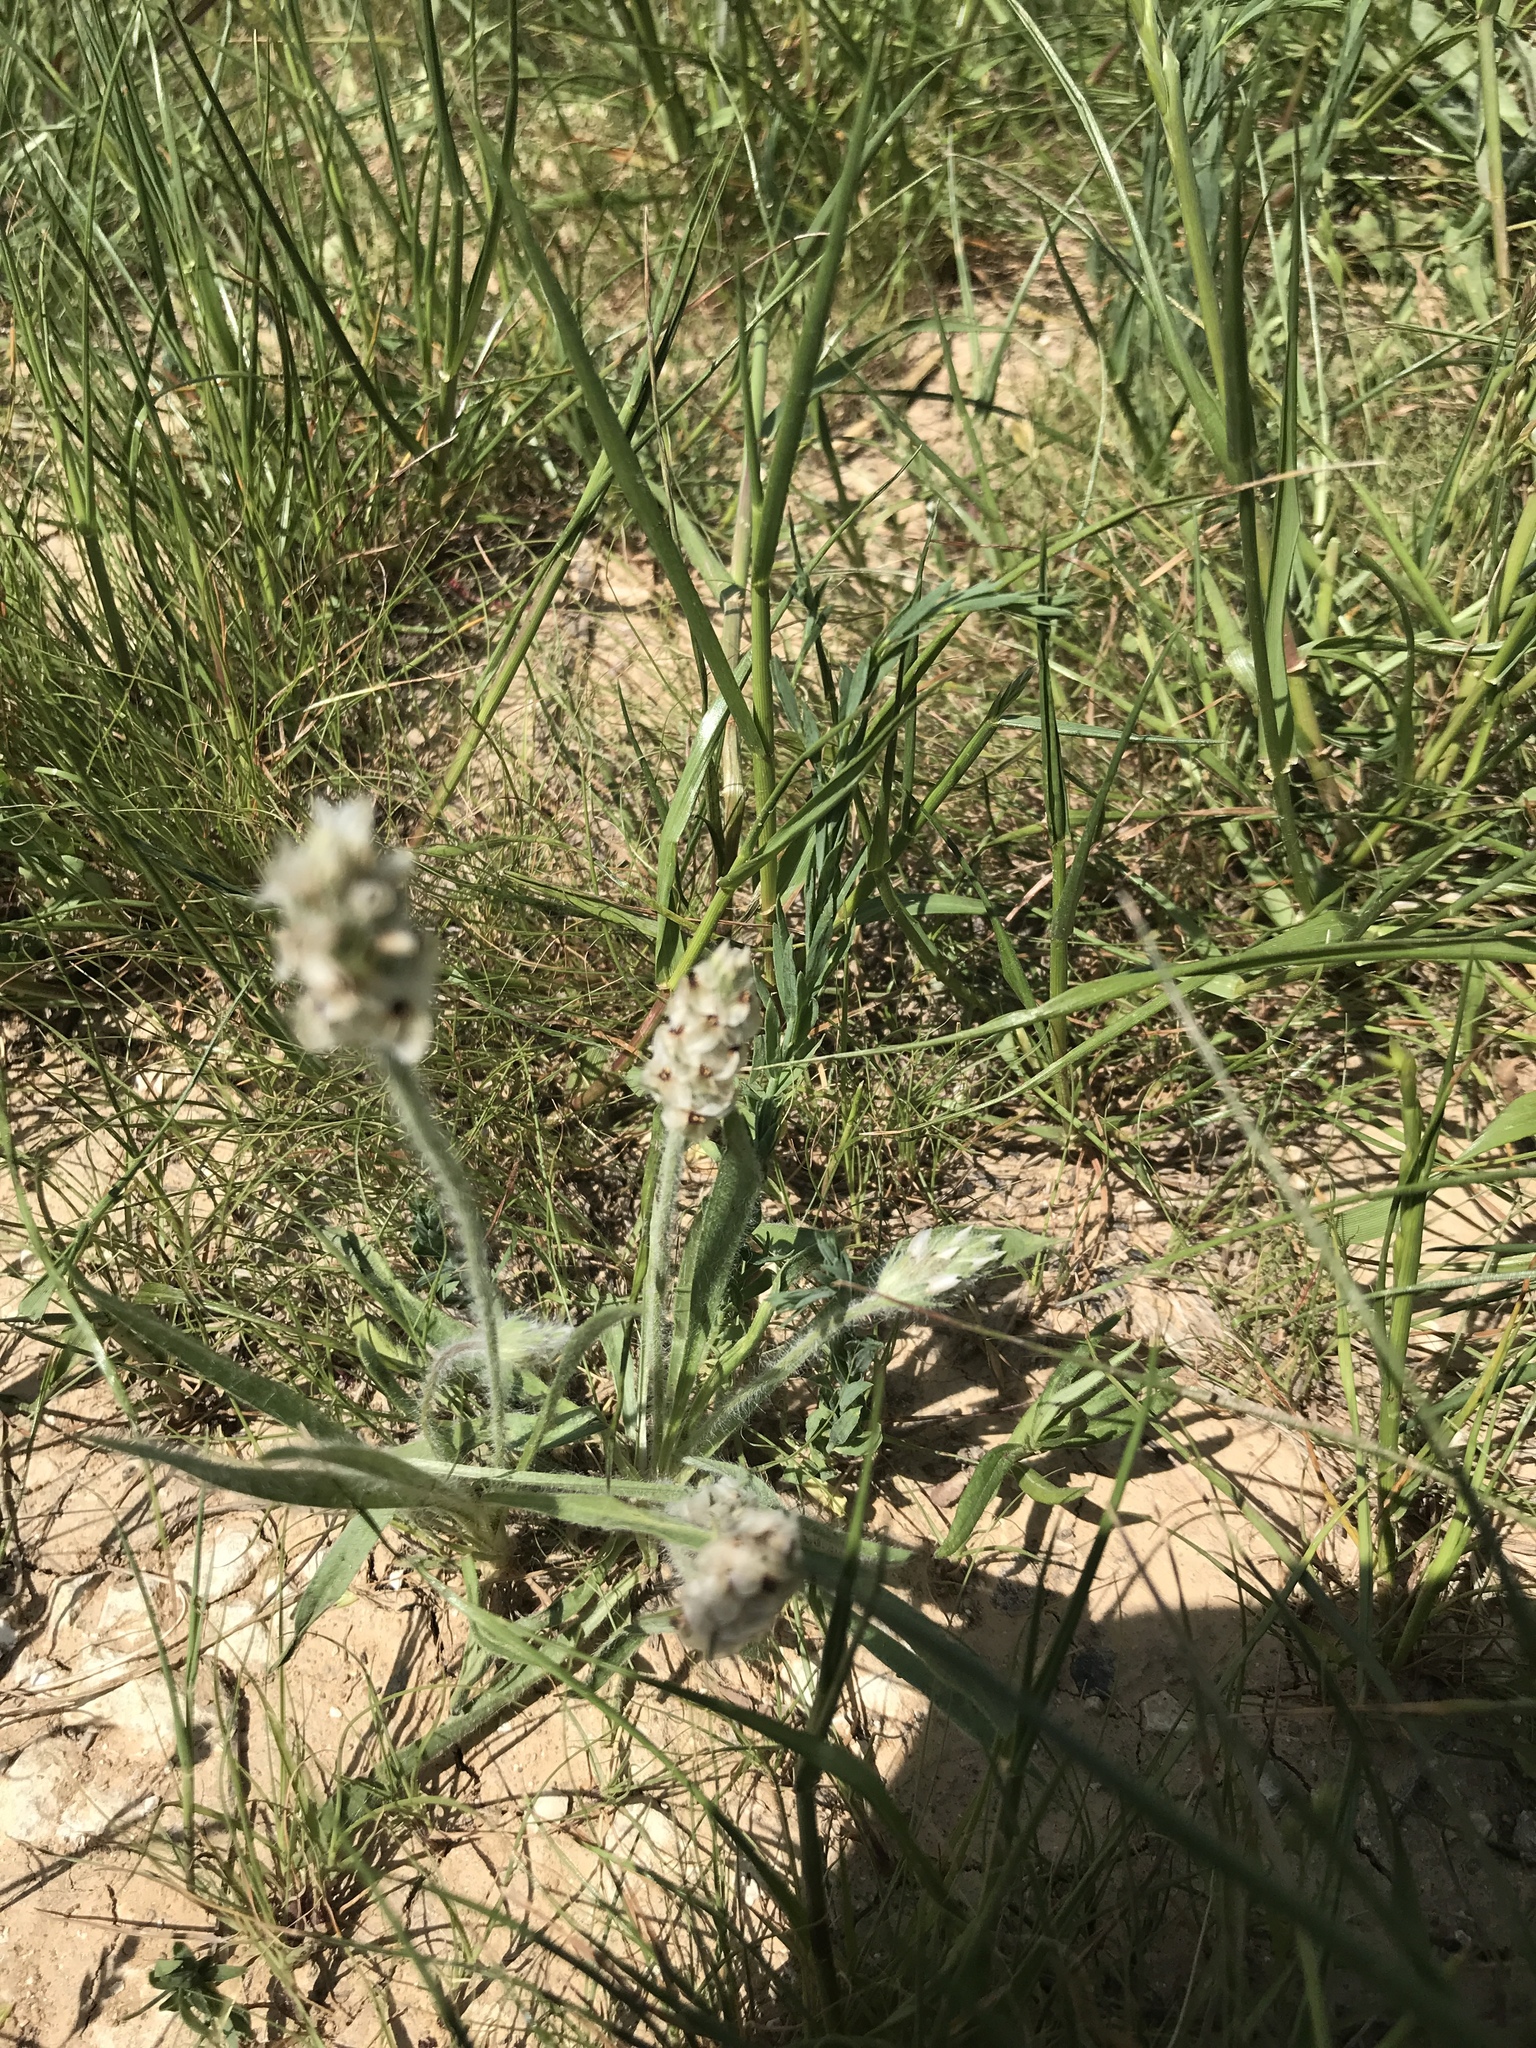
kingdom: Plantae
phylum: Tracheophyta
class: Magnoliopsida
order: Lamiales
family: Plantaginaceae
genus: Plantago
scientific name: Plantago helleri
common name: Heller's plantain
